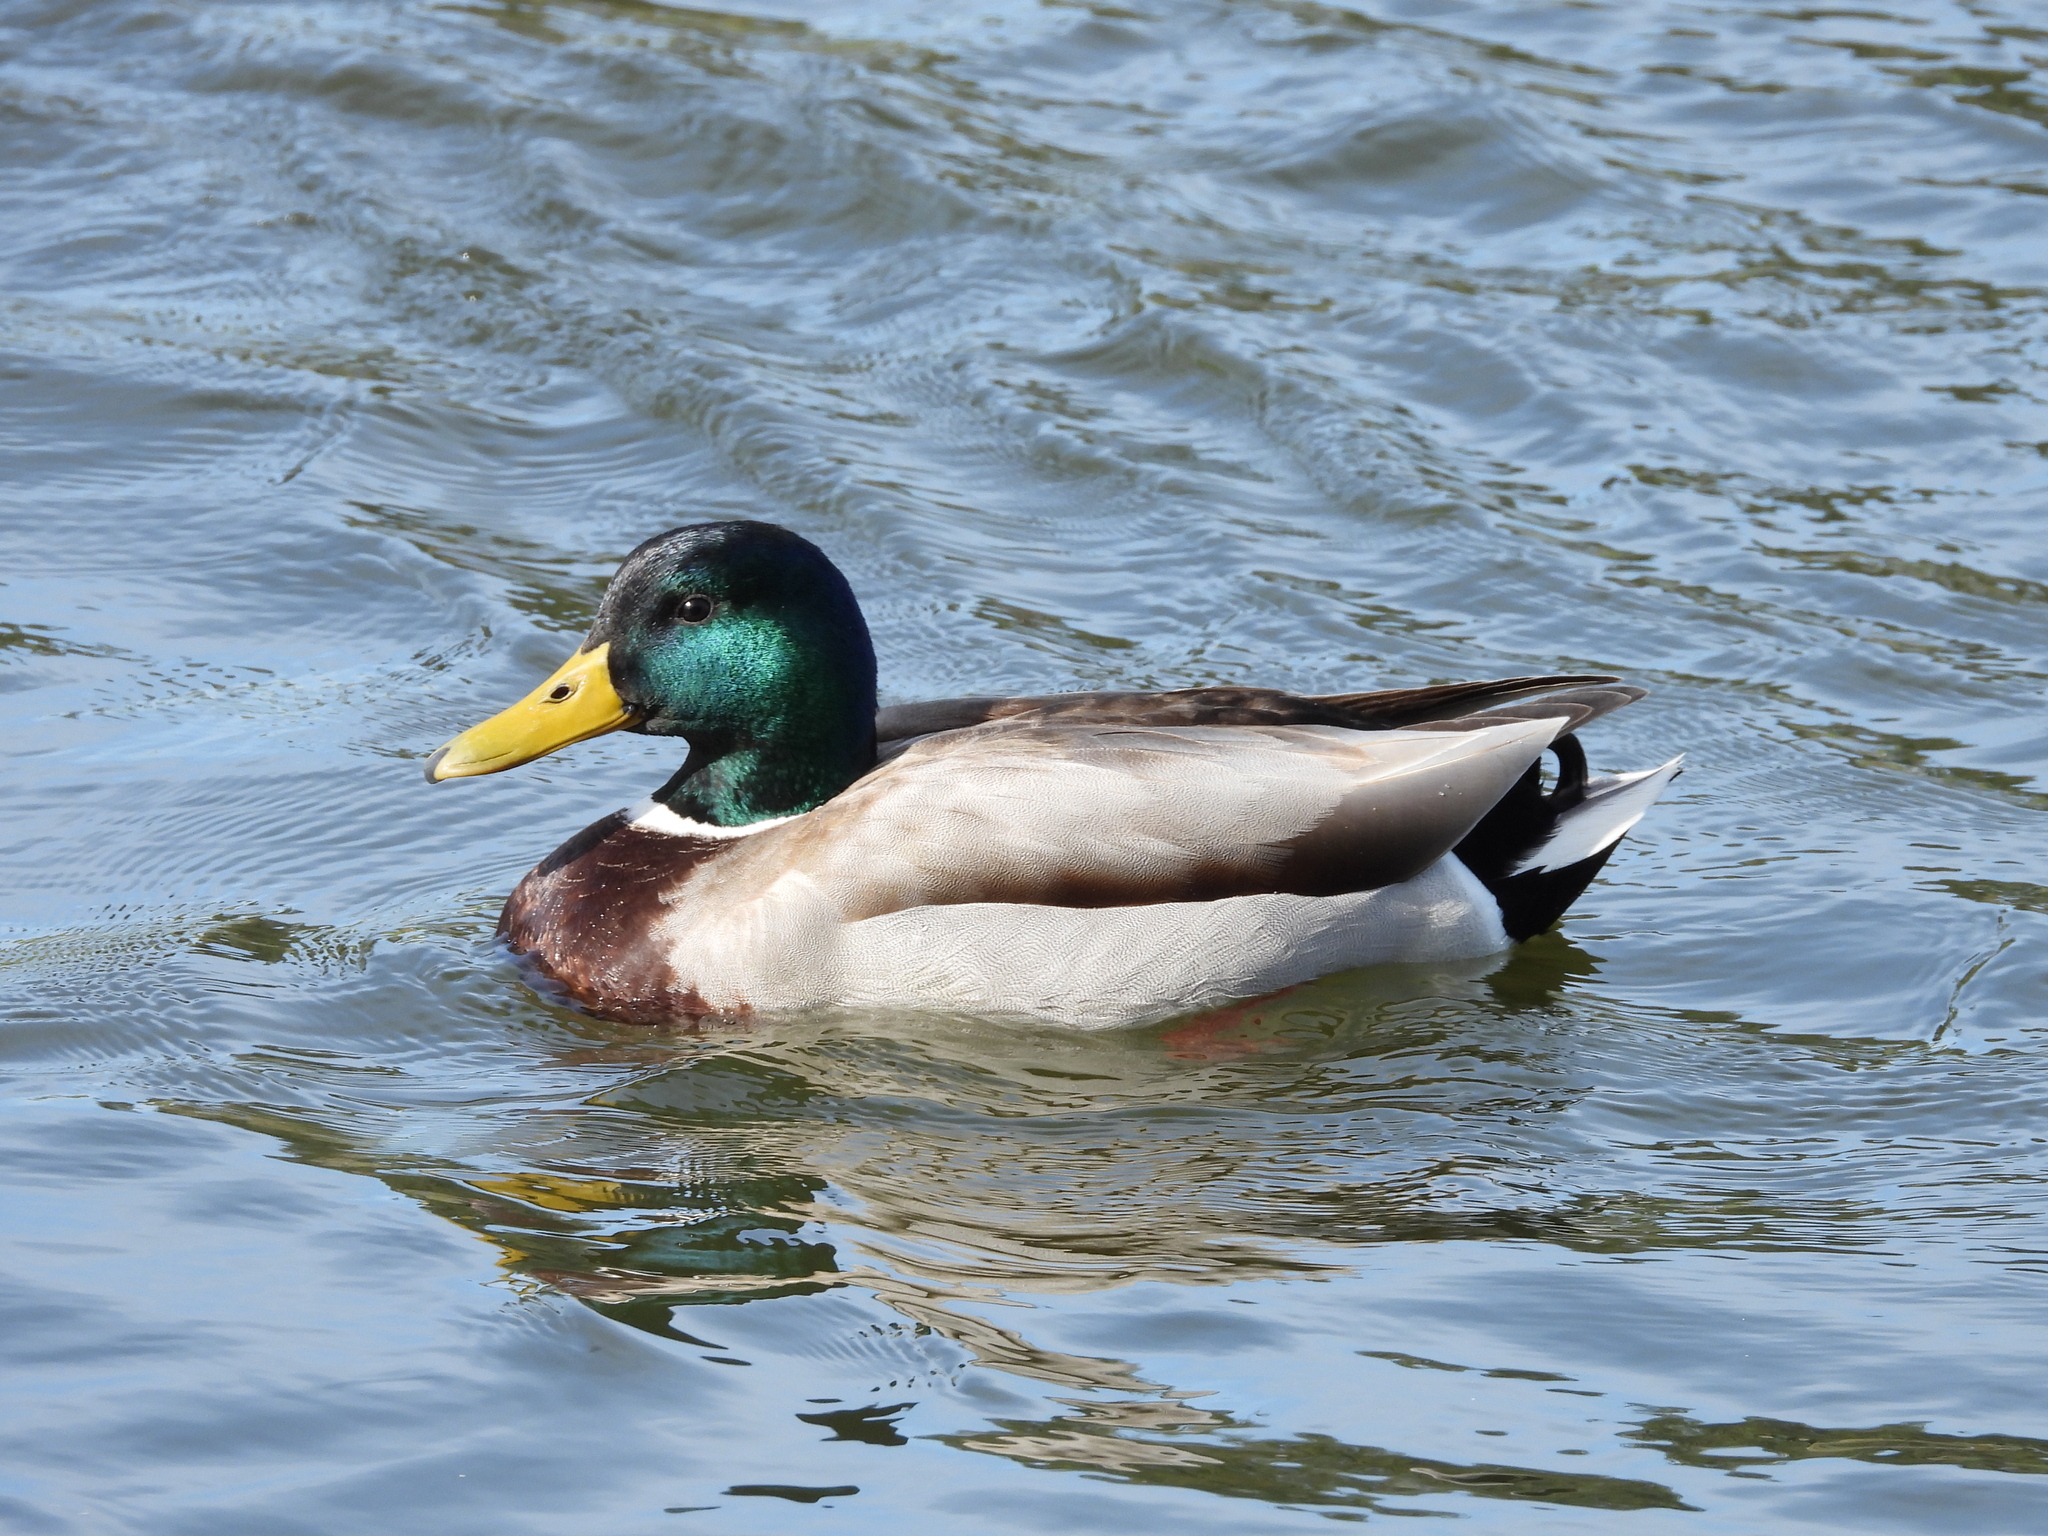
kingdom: Animalia
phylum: Chordata
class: Aves
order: Anseriformes
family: Anatidae
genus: Anas
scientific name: Anas platyrhynchos
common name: Mallard
